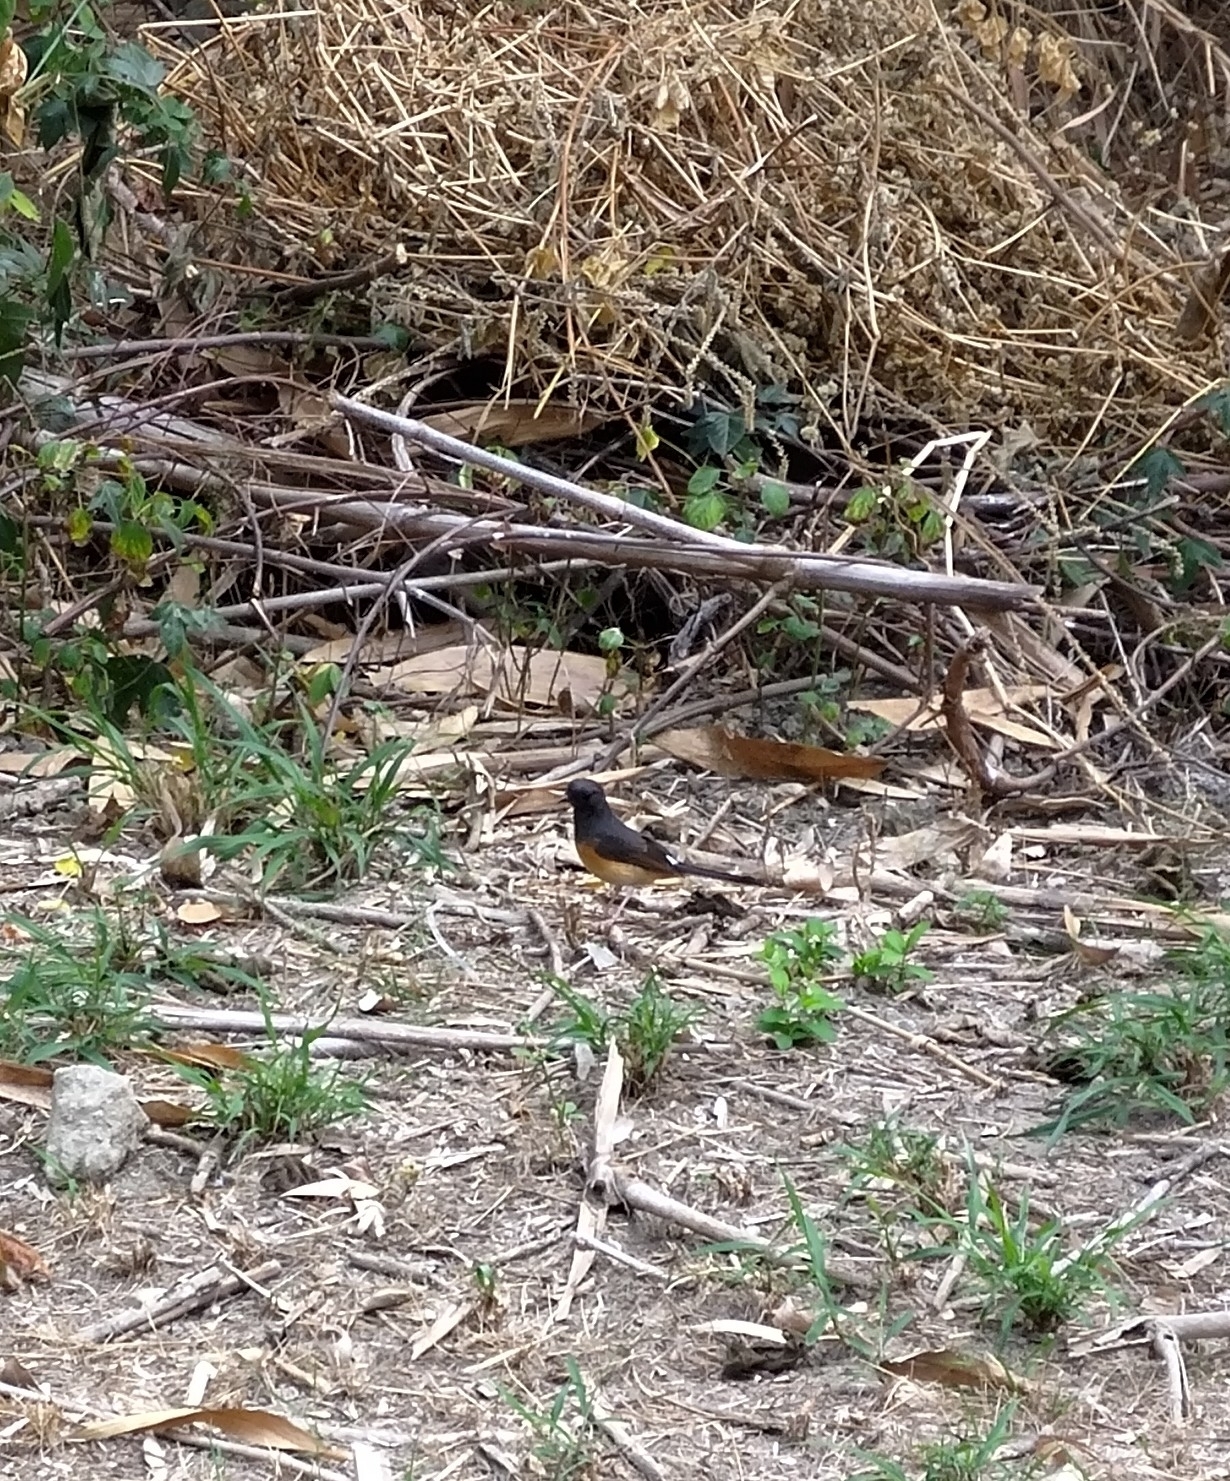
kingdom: Animalia
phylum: Chordata
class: Aves
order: Passeriformes
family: Muscicapidae
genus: Copsychus
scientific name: Copsychus malabaricus
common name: White-rumped shama
